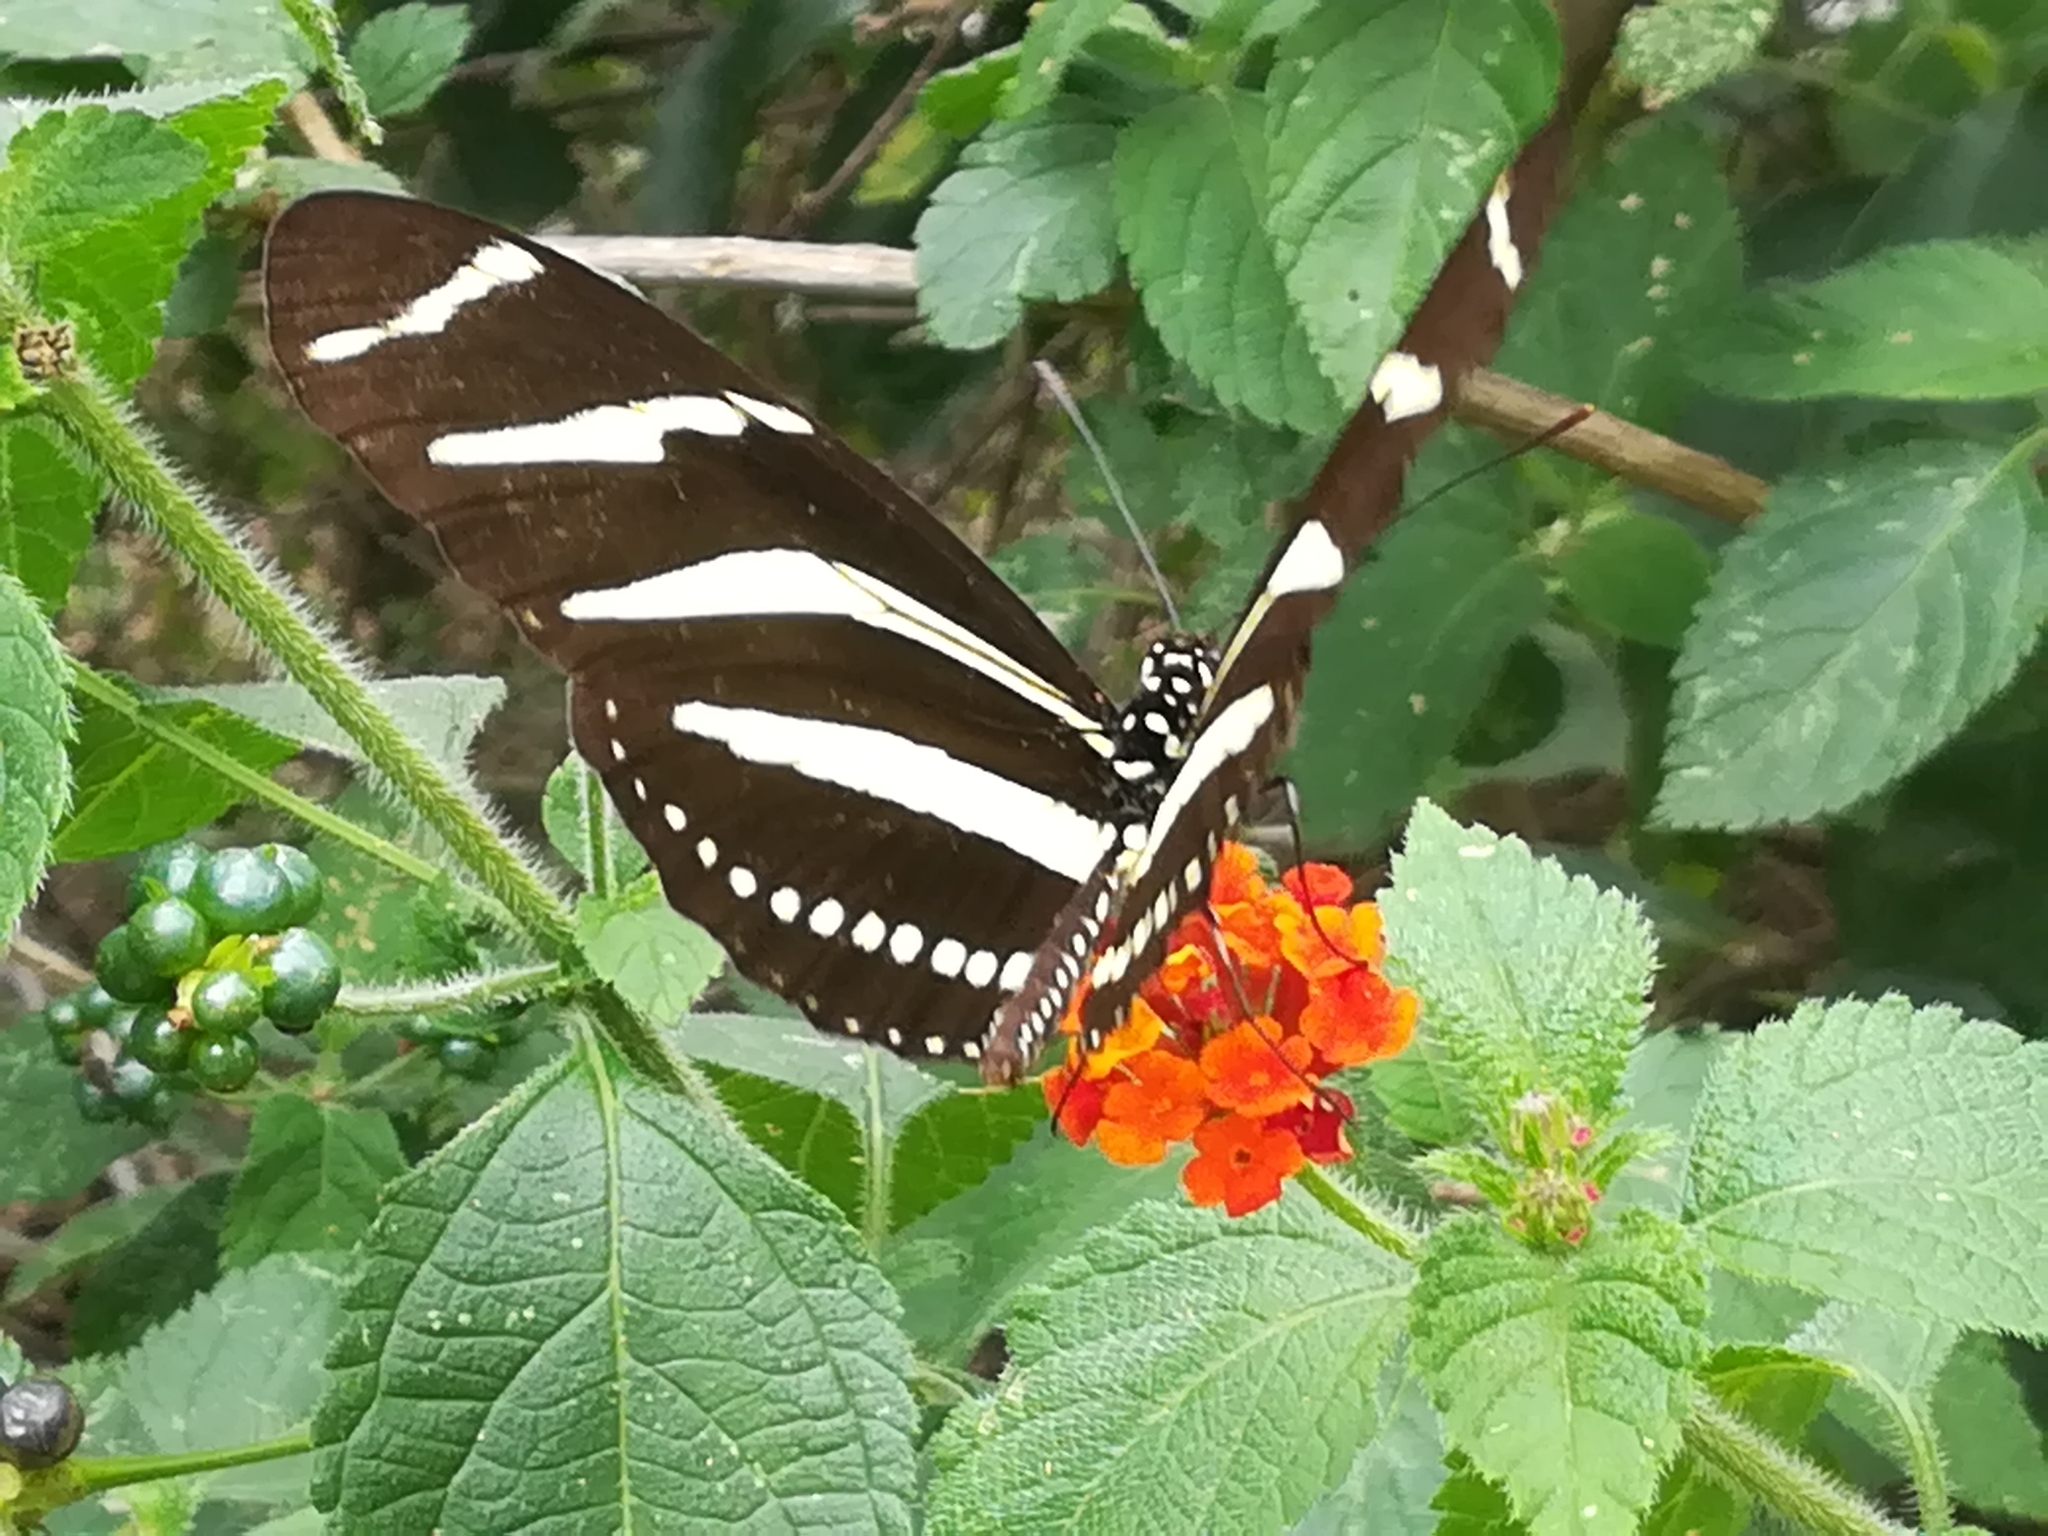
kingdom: Animalia
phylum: Arthropoda
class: Insecta
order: Lepidoptera
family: Nymphalidae
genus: Heliconius
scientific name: Heliconius charithonia
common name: Zebra long wing
